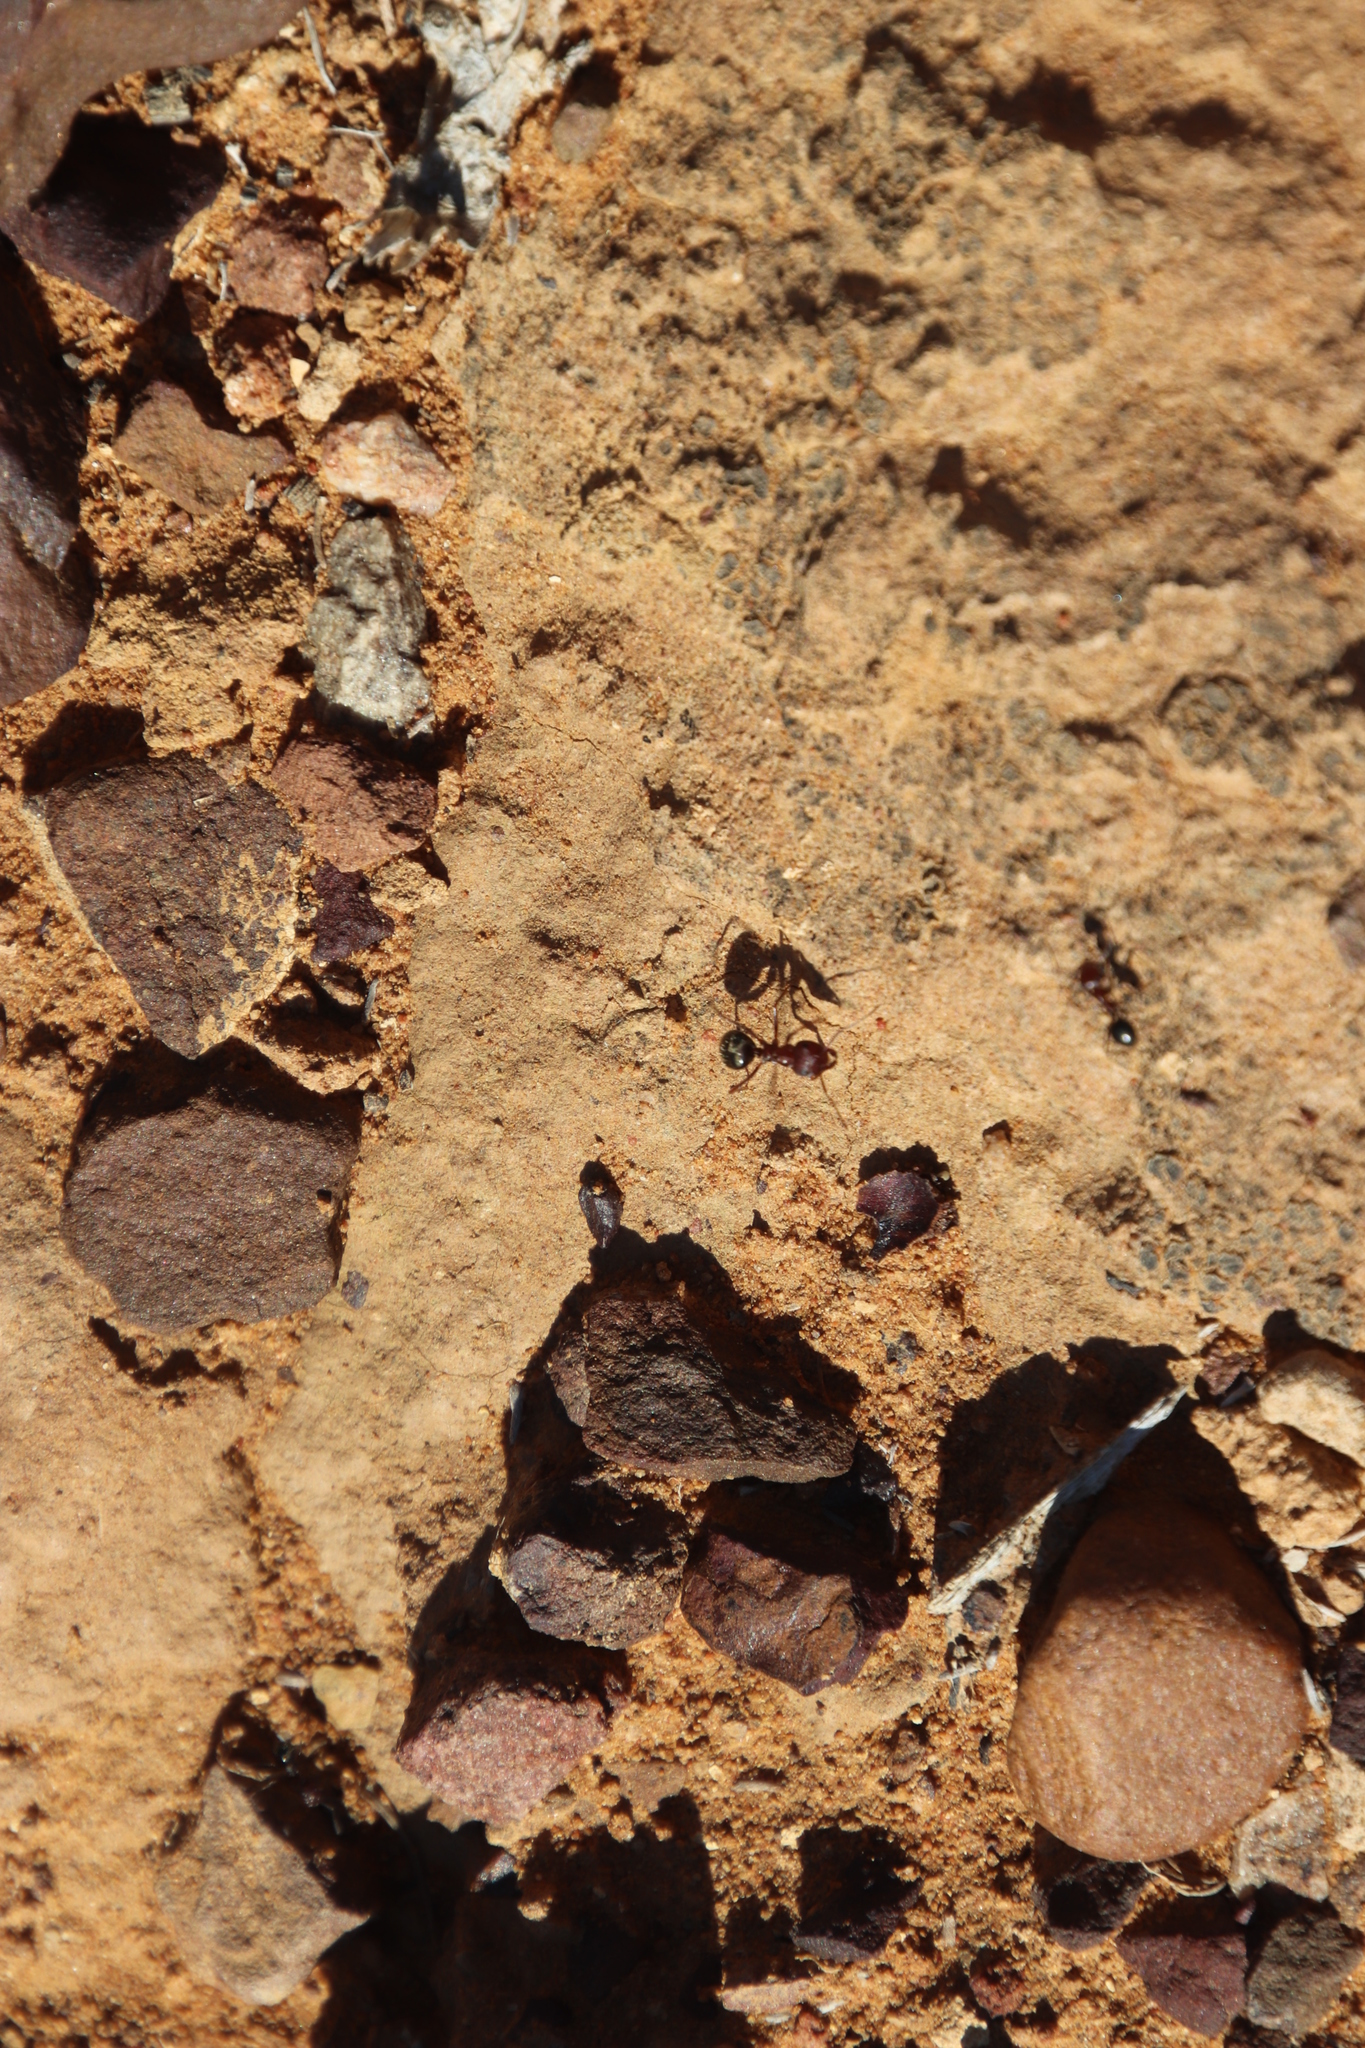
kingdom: Animalia
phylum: Arthropoda
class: Insecta
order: Hymenoptera
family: Formicidae
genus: Anoplolepis
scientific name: Anoplolepis steingroeveri
